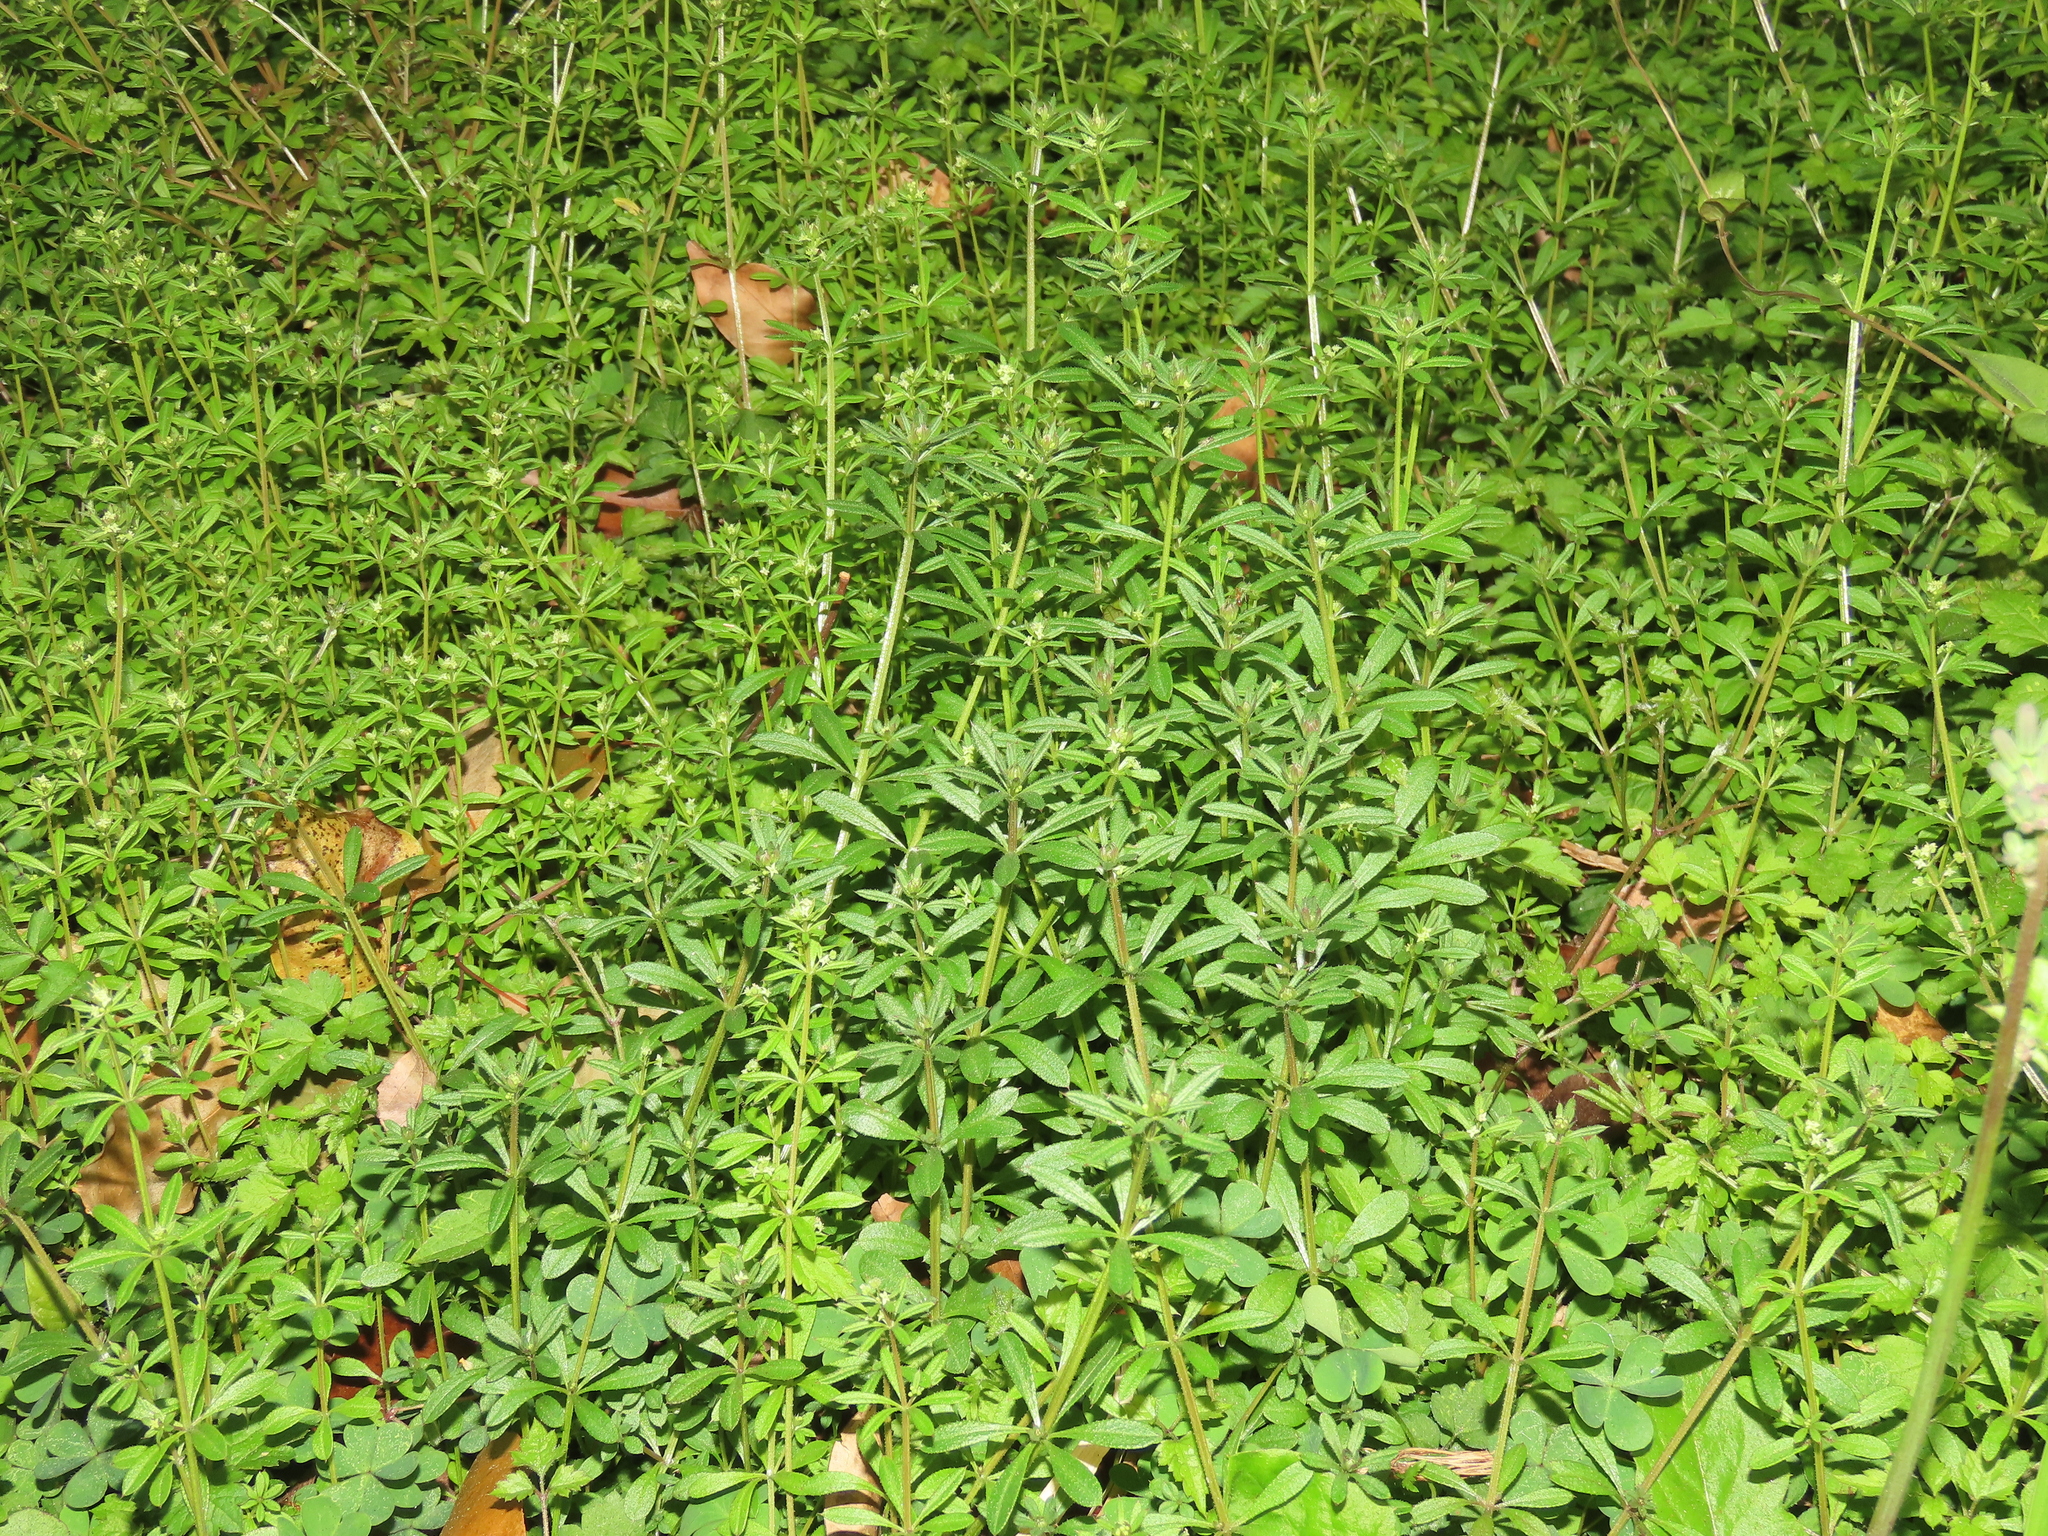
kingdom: Plantae
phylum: Tracheophyta
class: Magnoliopsida
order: Gentianales
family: Rubiaceae
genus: Galium
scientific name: Galium spurium
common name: False cleavers
